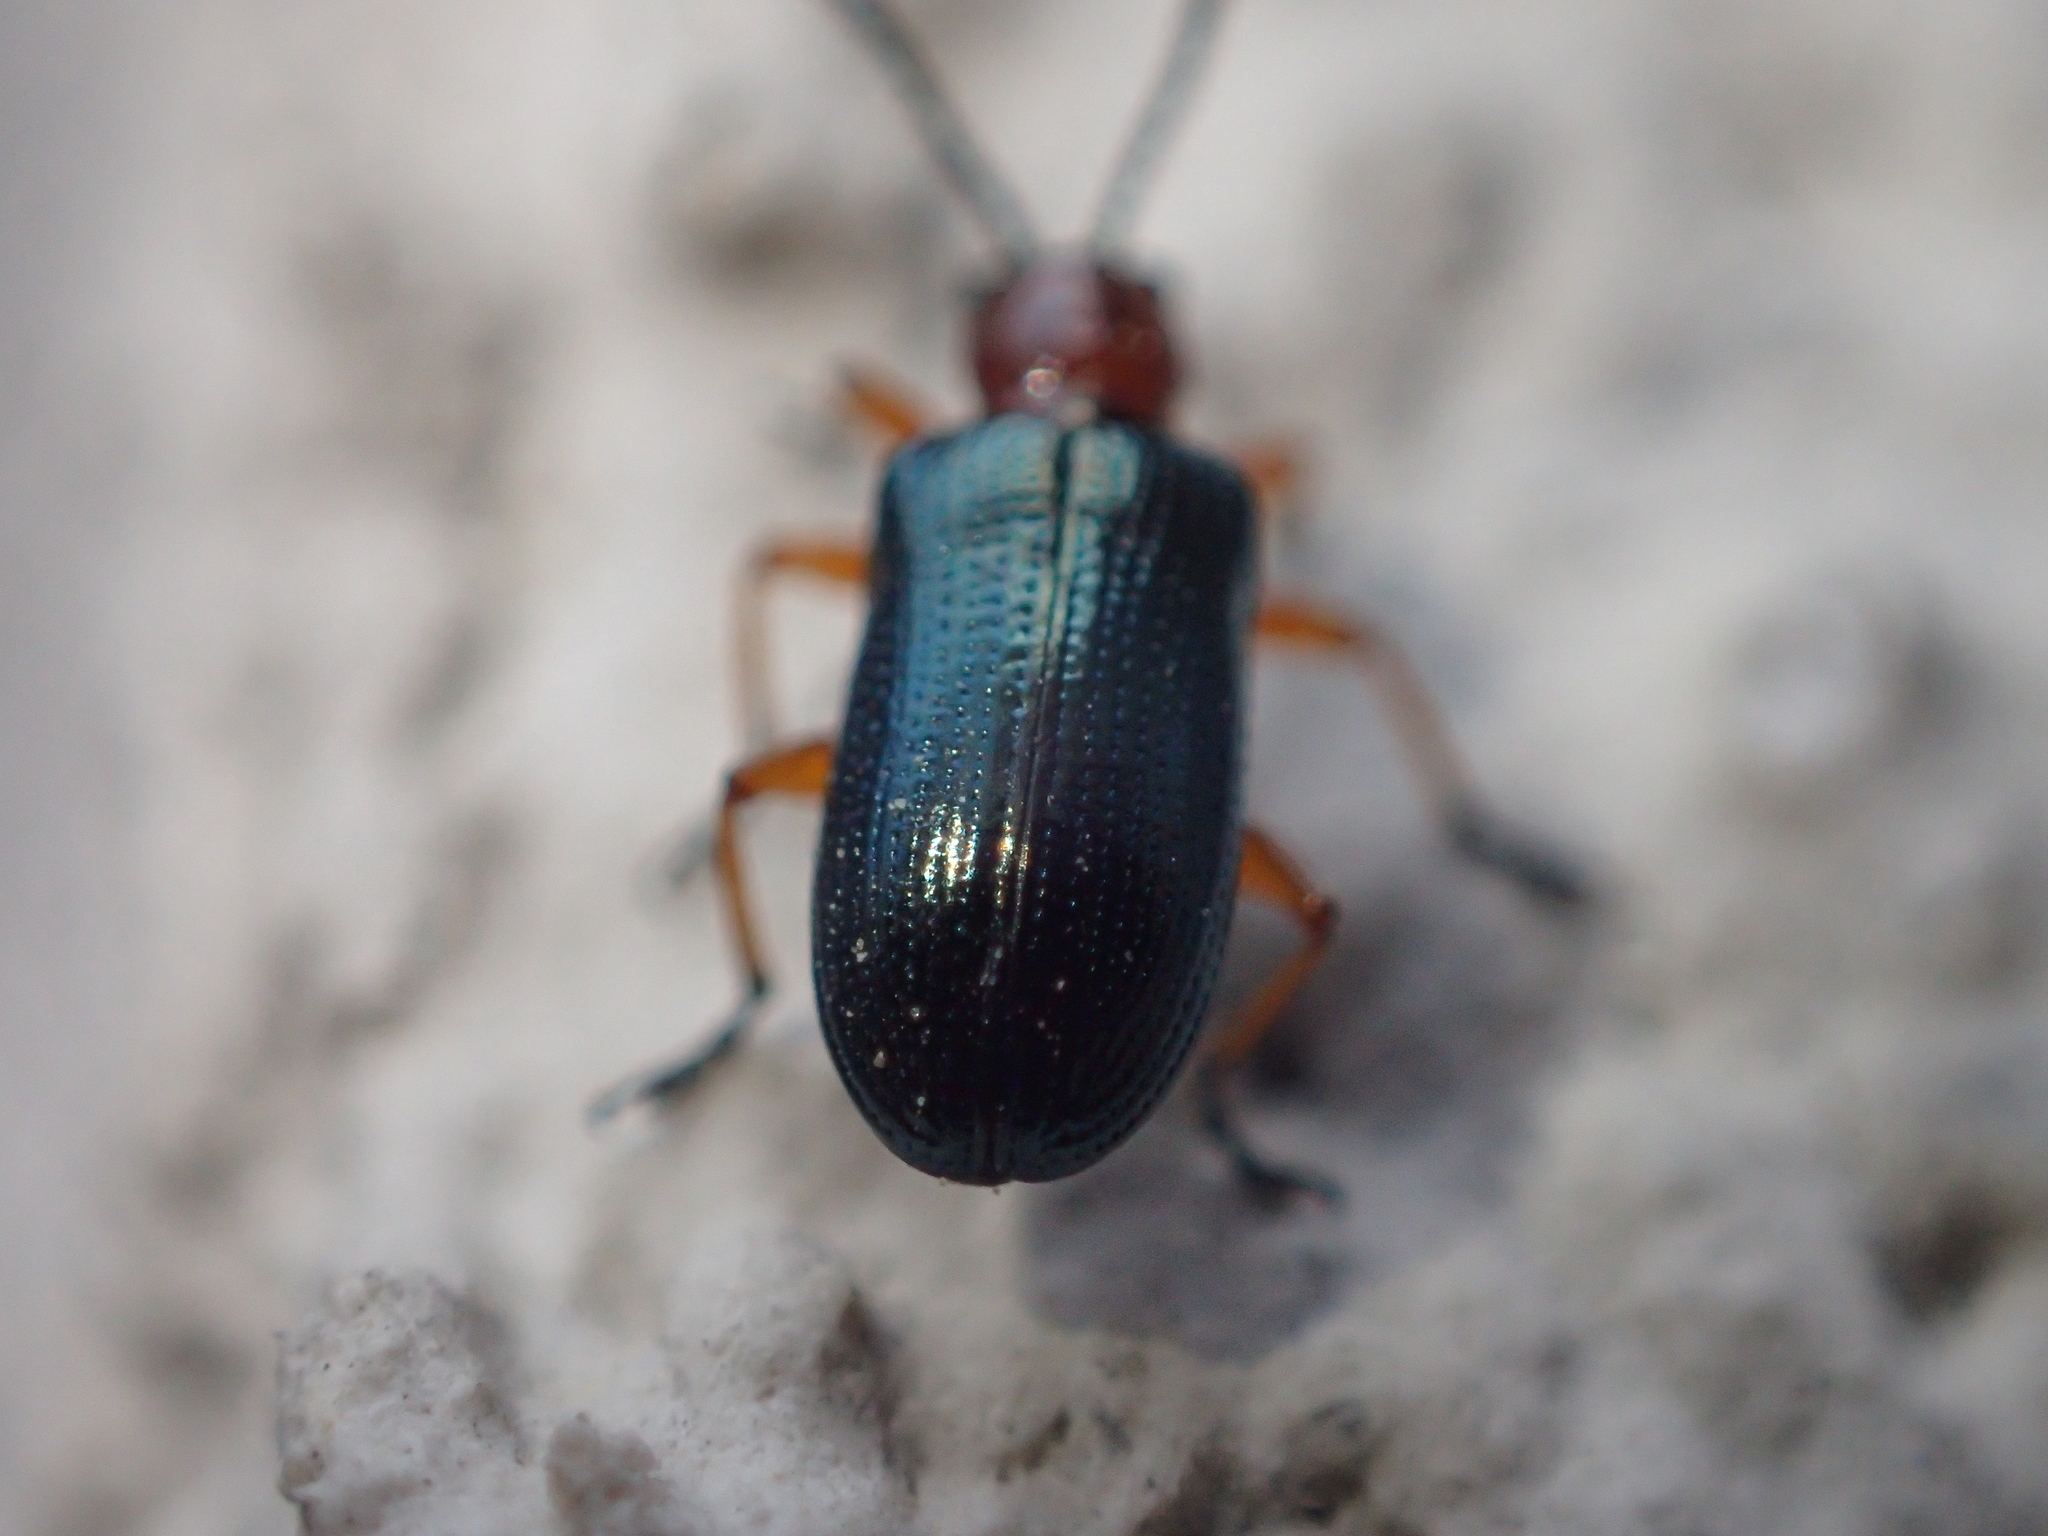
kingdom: Animalia
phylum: Arthropoda
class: Insecta
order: Coleoptera
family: Chrysomelidae
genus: Oulema
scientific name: Oulema
